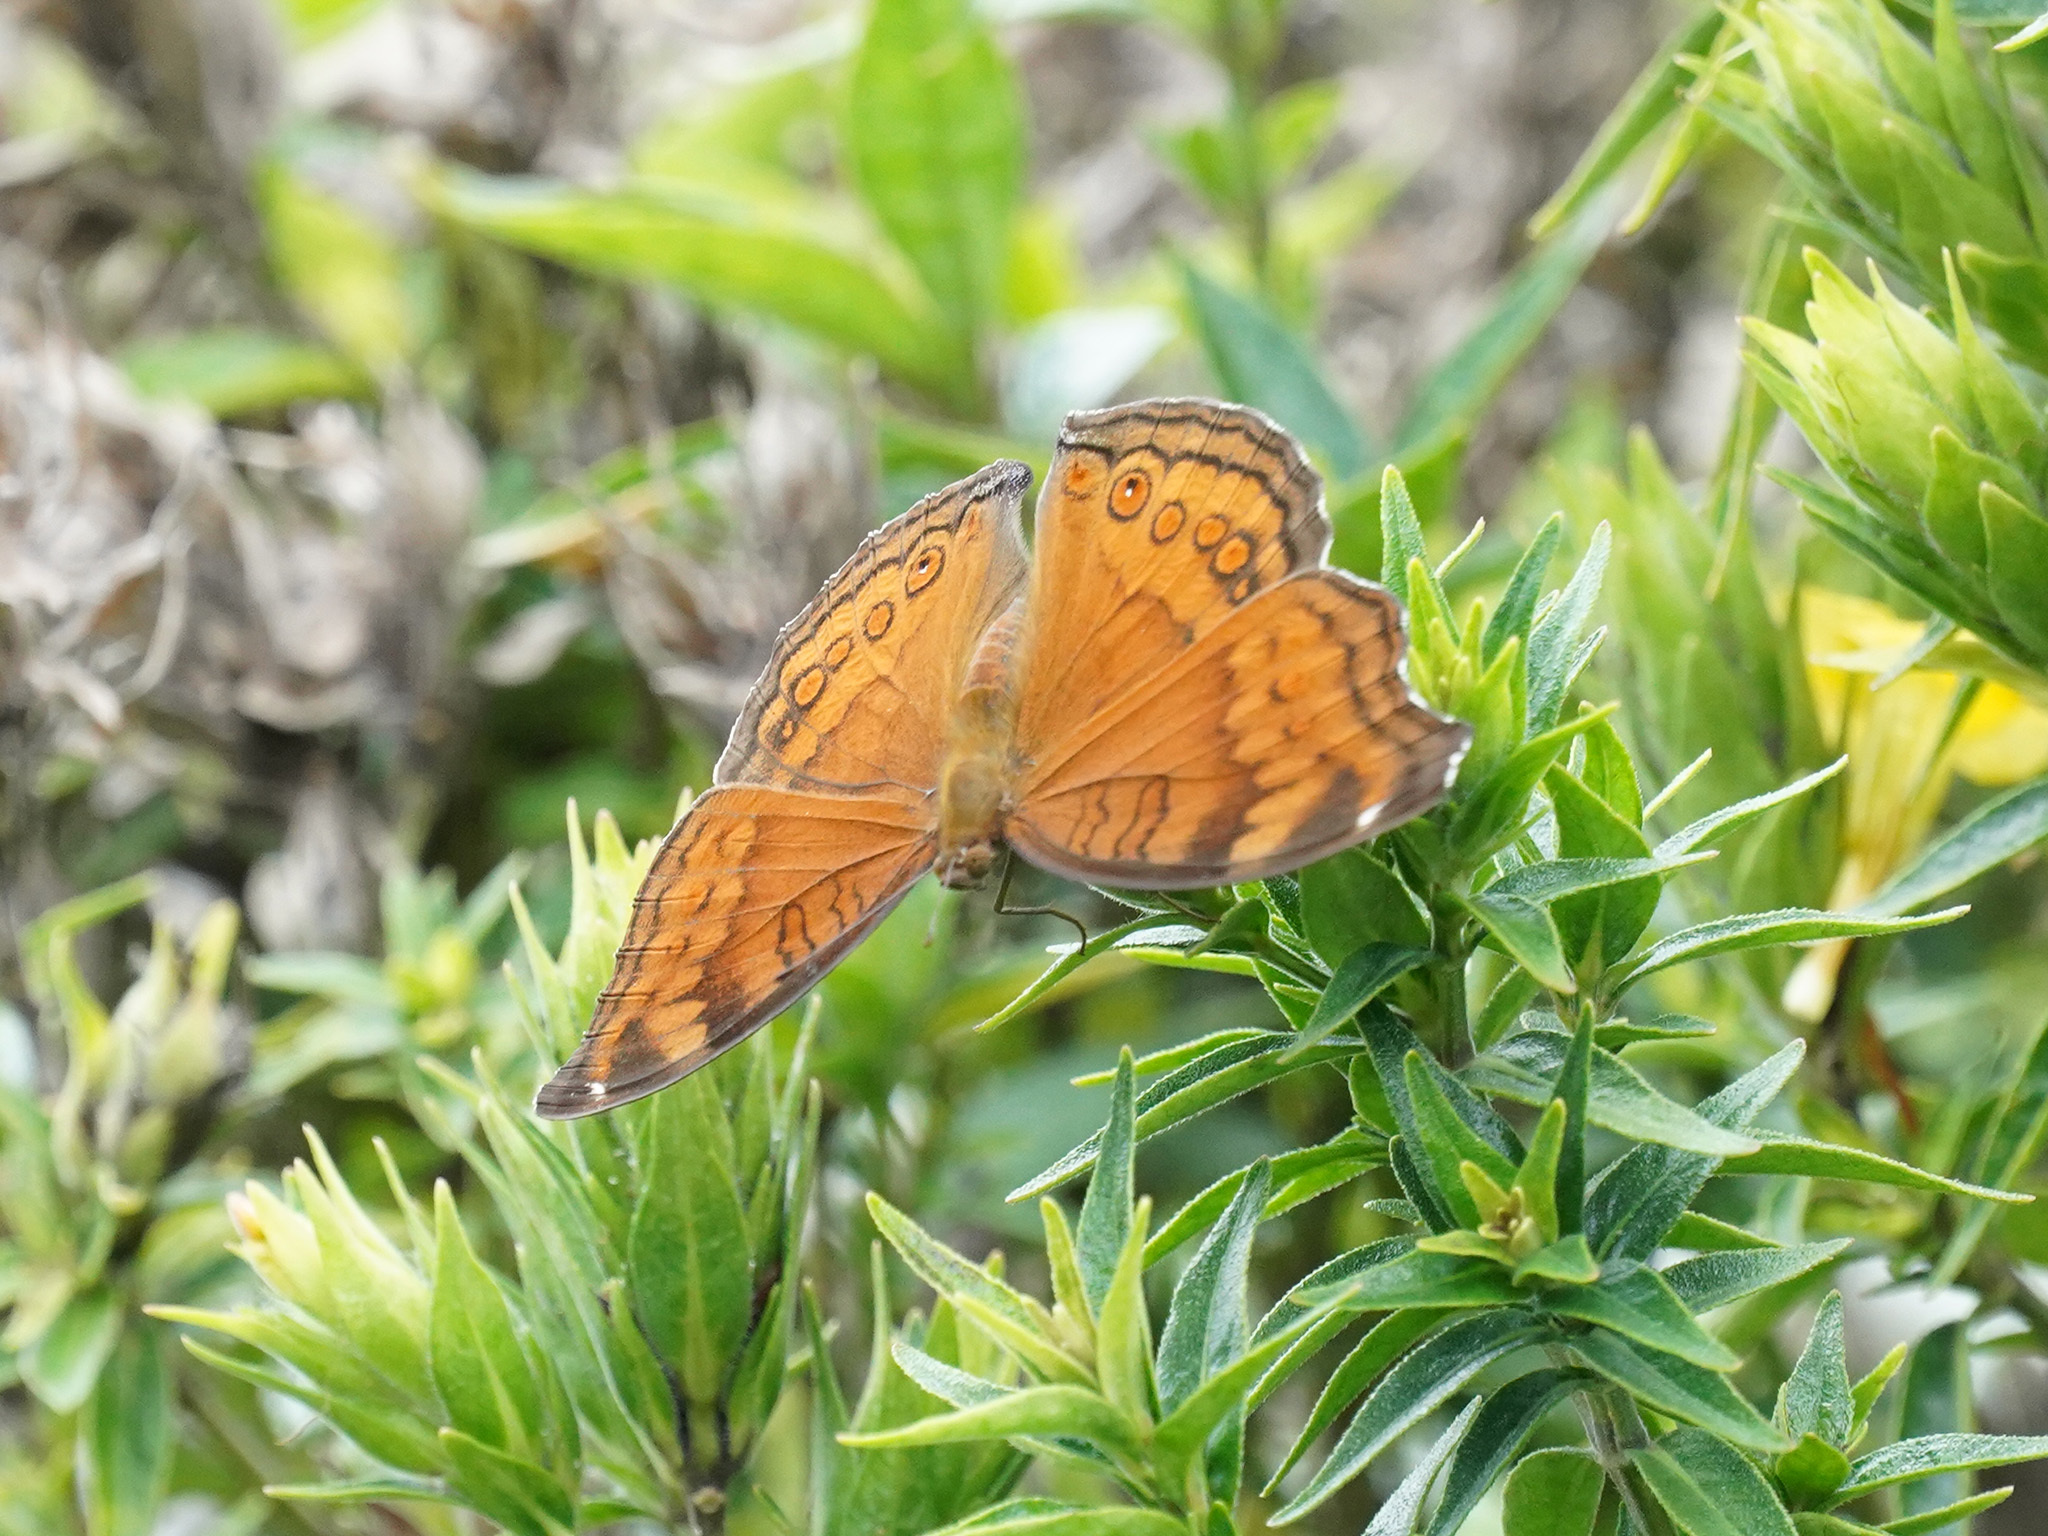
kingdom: Animalia
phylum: Arthropoda
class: Insecta
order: Lepidoptera
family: Nymphalidae
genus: Junonia
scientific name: Junonia hedonia
